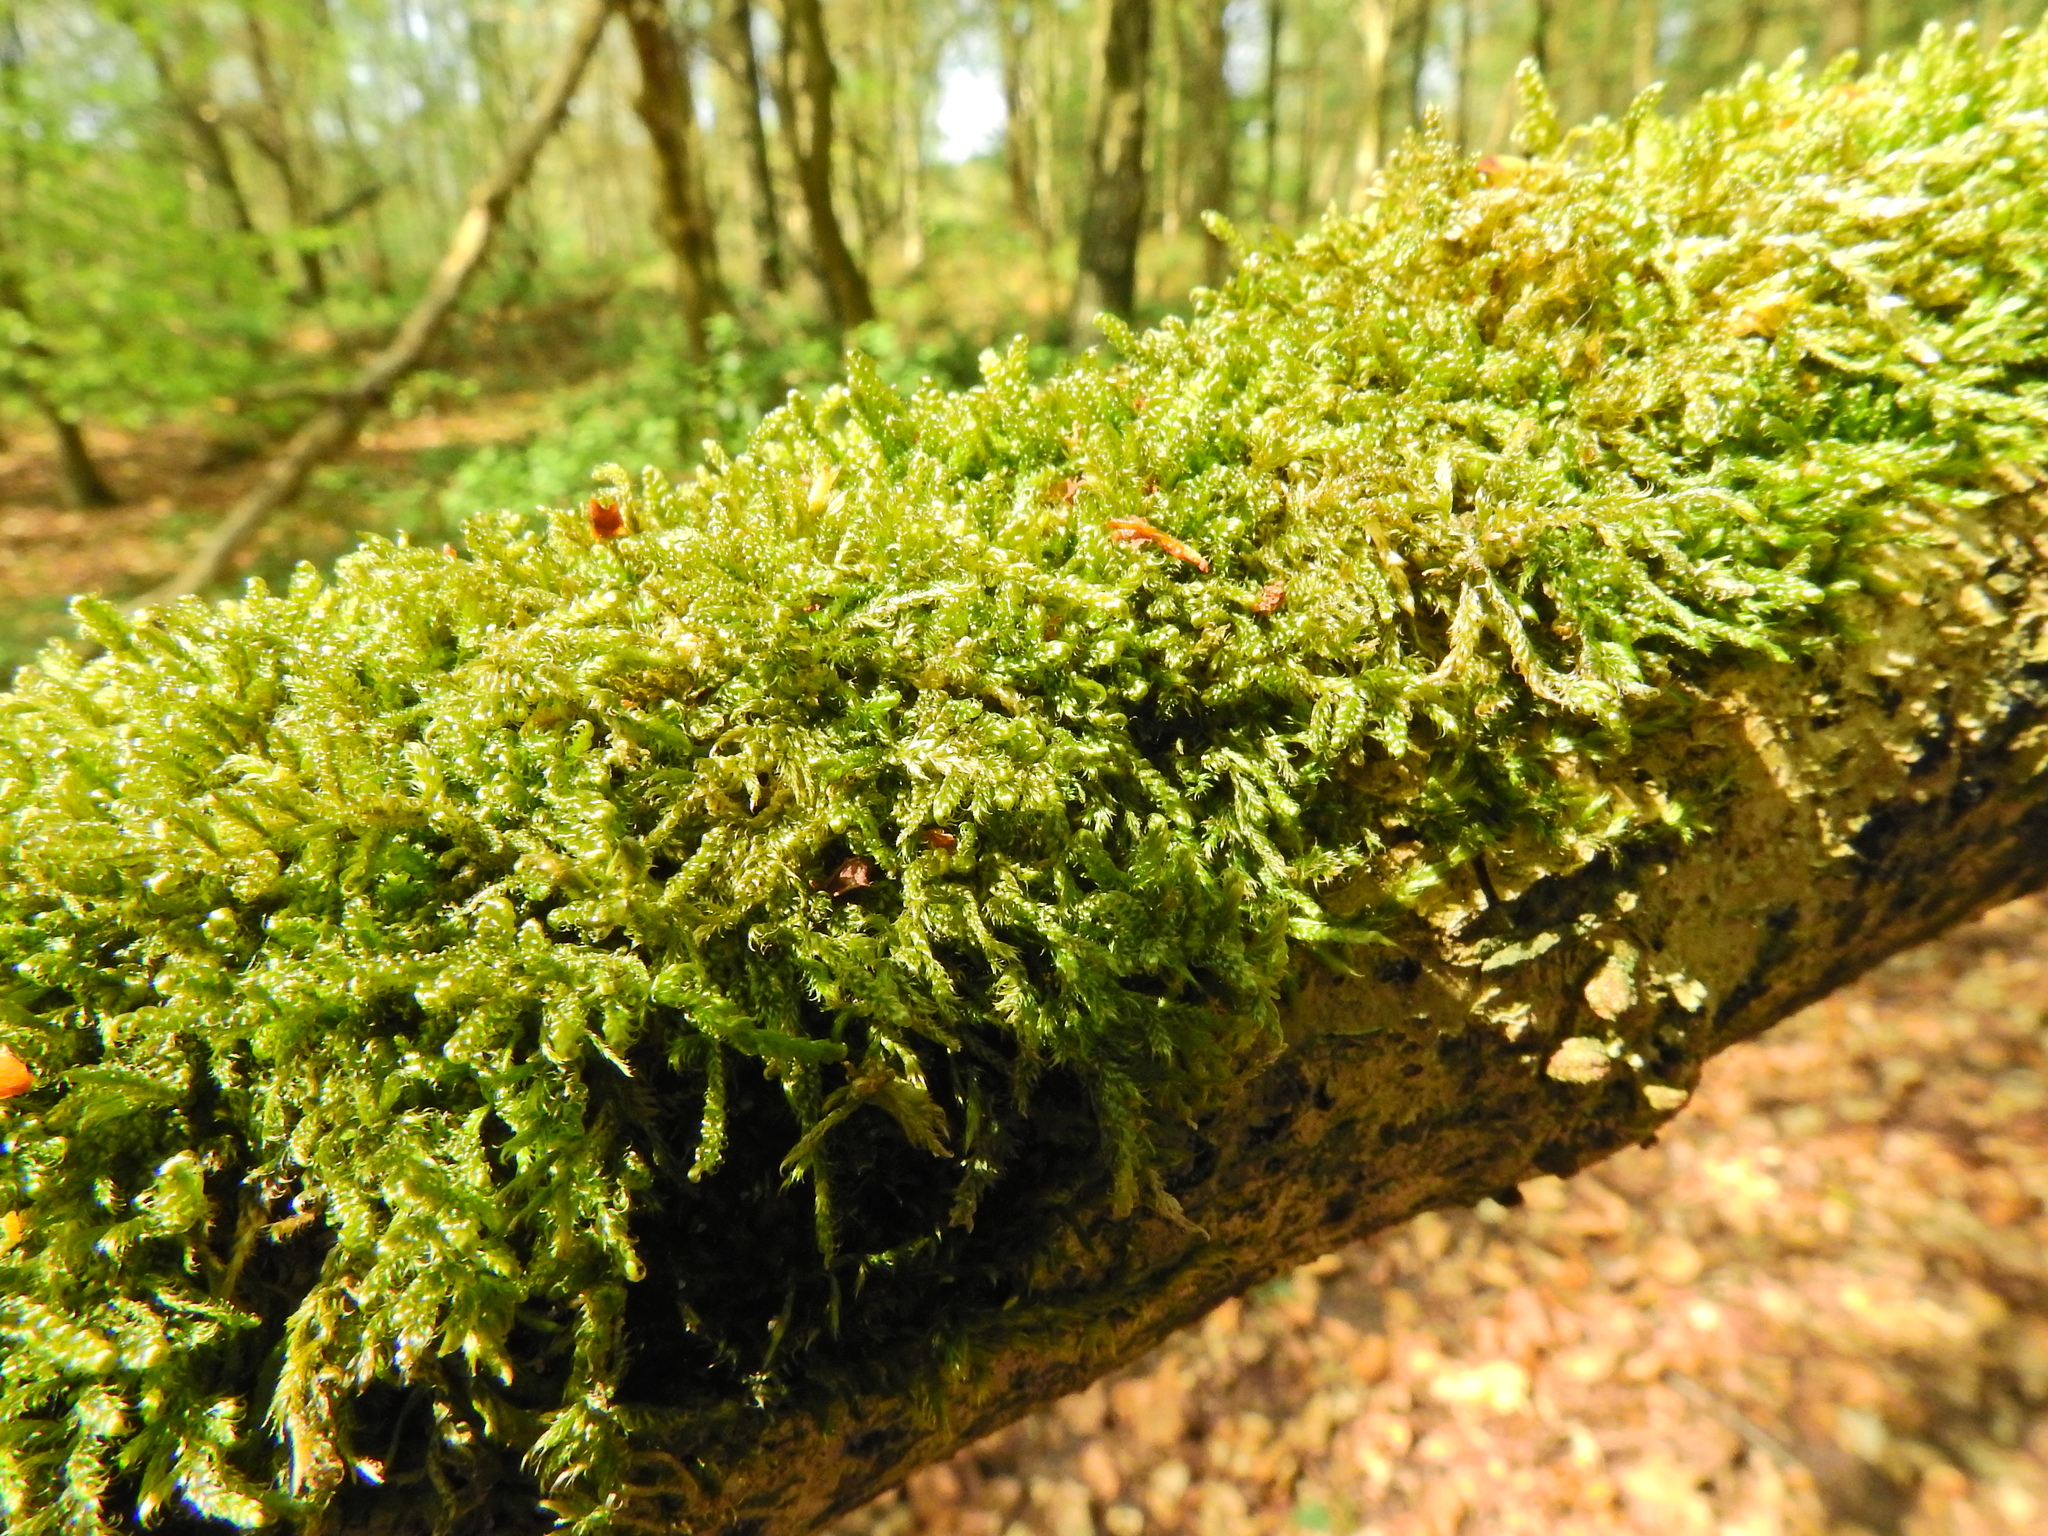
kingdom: Plantae
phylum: Bryophyta
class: Bryopsida
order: Hypnales
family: Hypnaceae
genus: Hypnum
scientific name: Hypnum cupressiforme
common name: Cypress-leaved plait-moss
